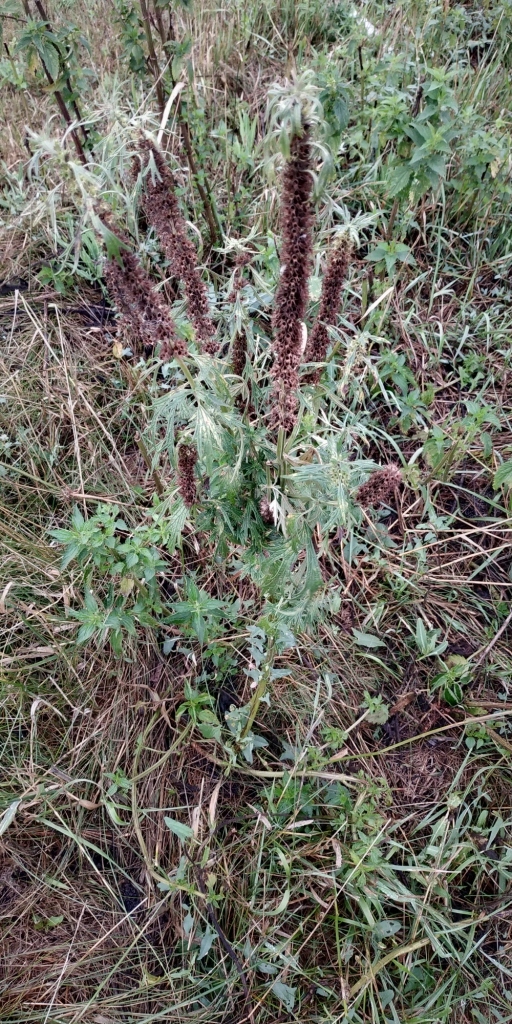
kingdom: Plantae
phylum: Tracheophyta
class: Magnoliopsida
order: Lamiales
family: Lamiaceae
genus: Leonurus
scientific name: Leonurus quinquelobatus
